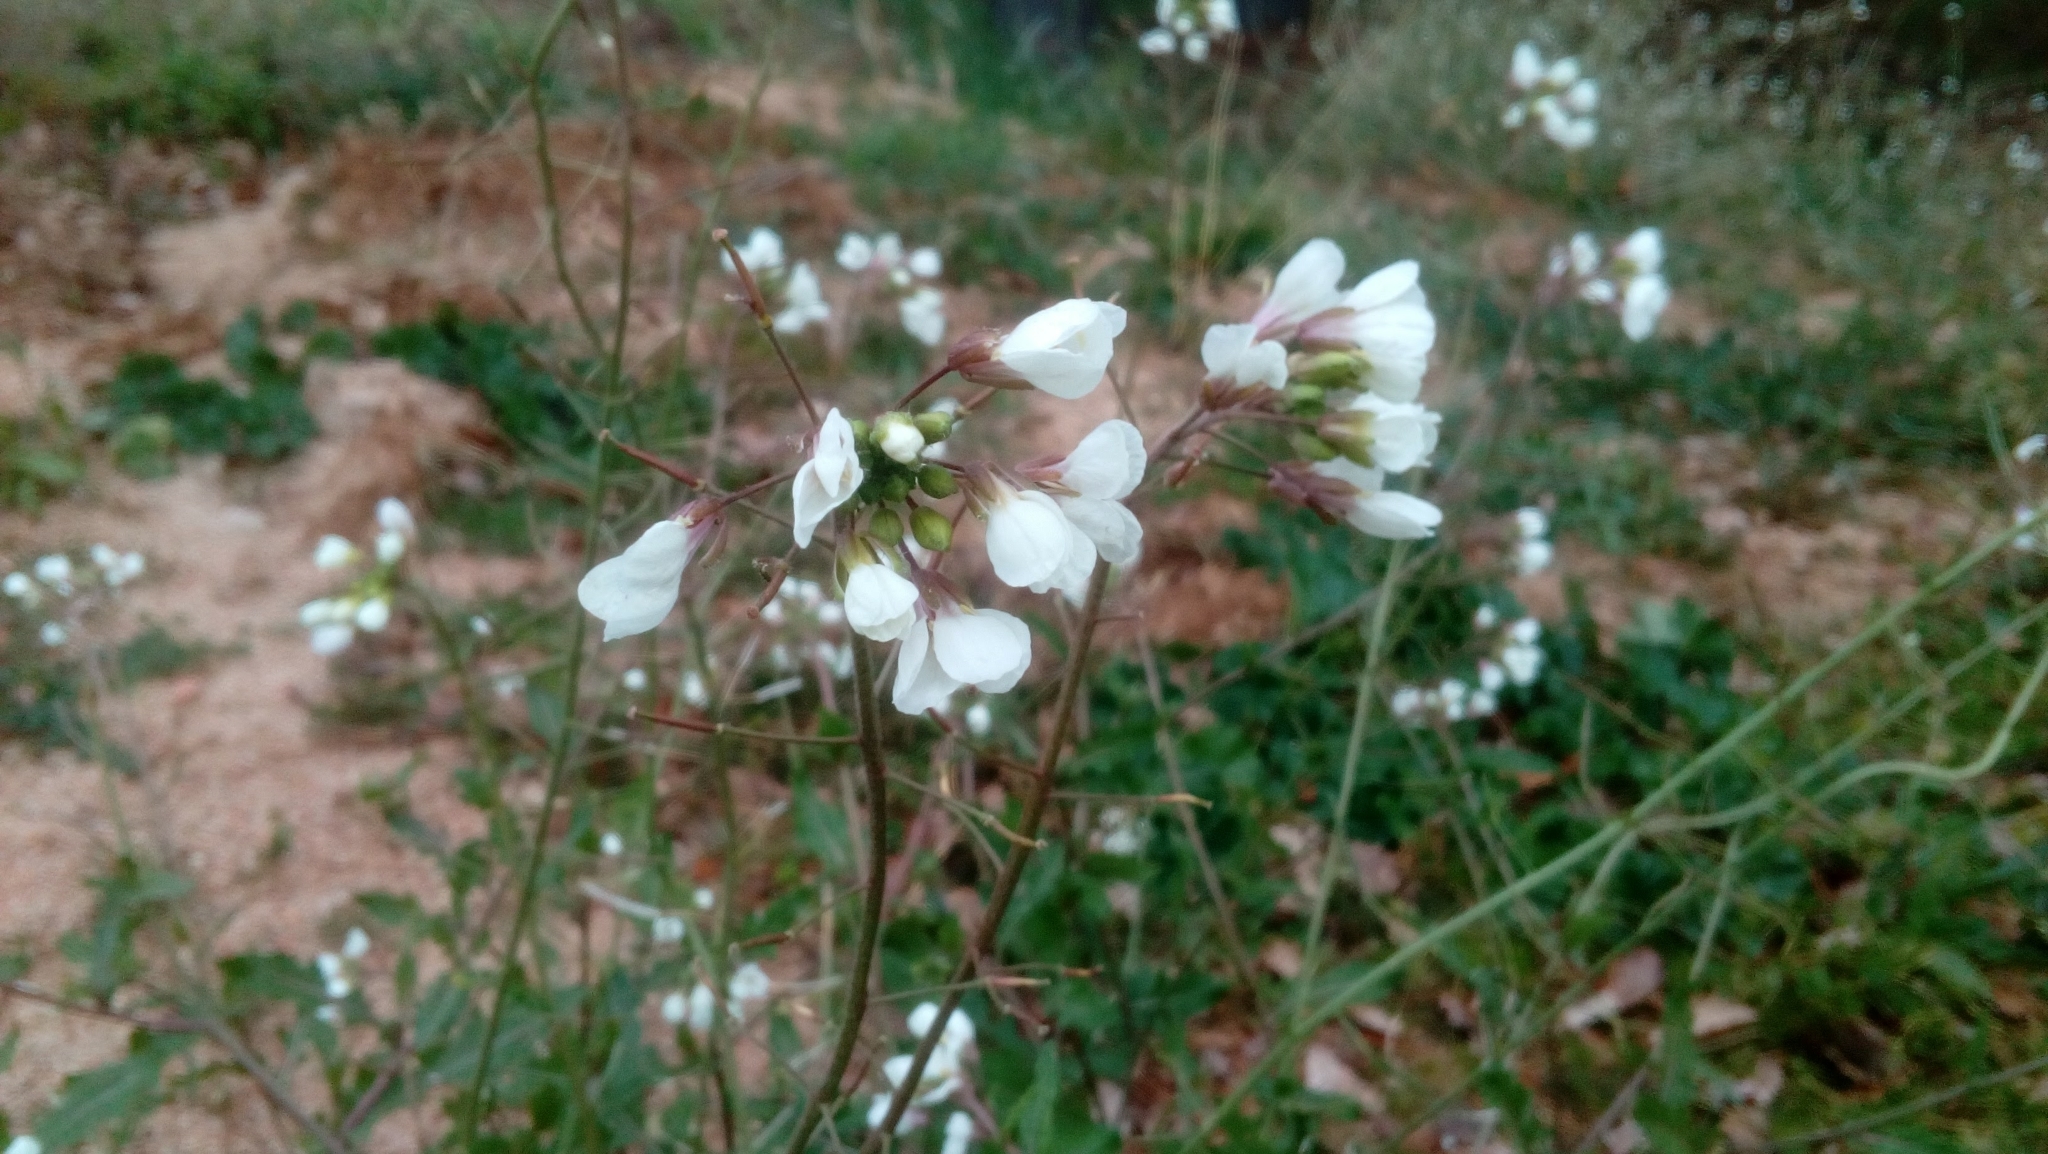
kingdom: Plantae
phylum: Tracheophyta
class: Magnoliopsida
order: Brassicales
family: Brassicaceae
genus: Diplotaxis
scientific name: Diplotaxis erucoides
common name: White rocket
